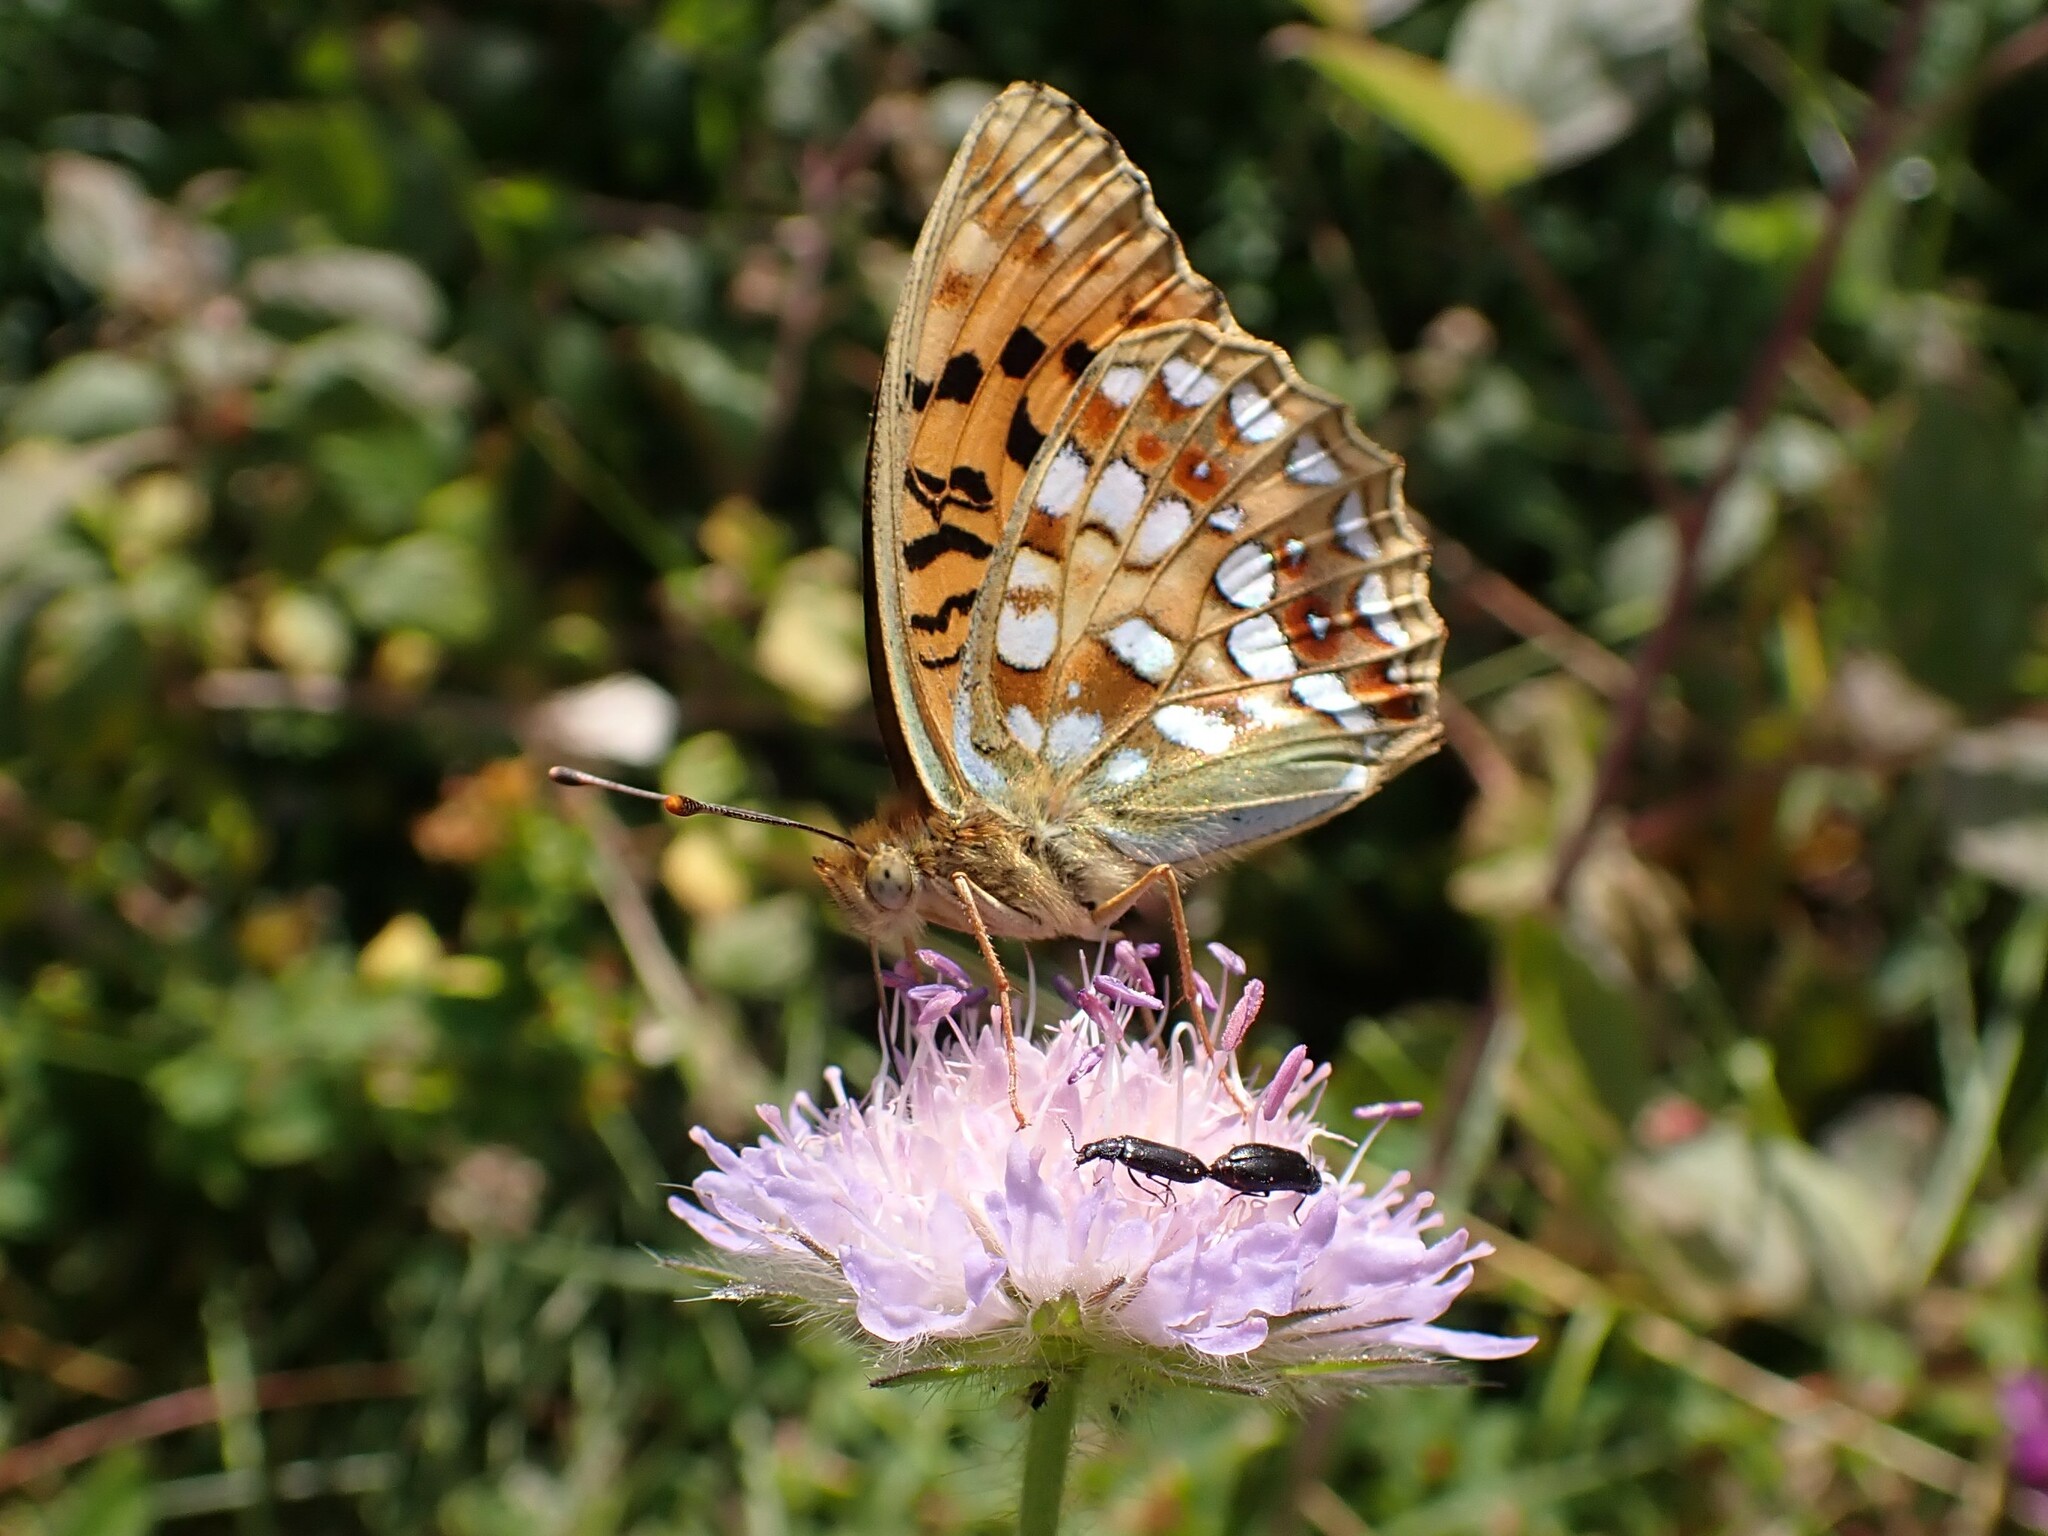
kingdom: Animalia
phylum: Arthropoda
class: Insecta
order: Lepidoptera
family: Nymphalidae
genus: Fabriciana
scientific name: Fabriciana adippe
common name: High brown fritillary
